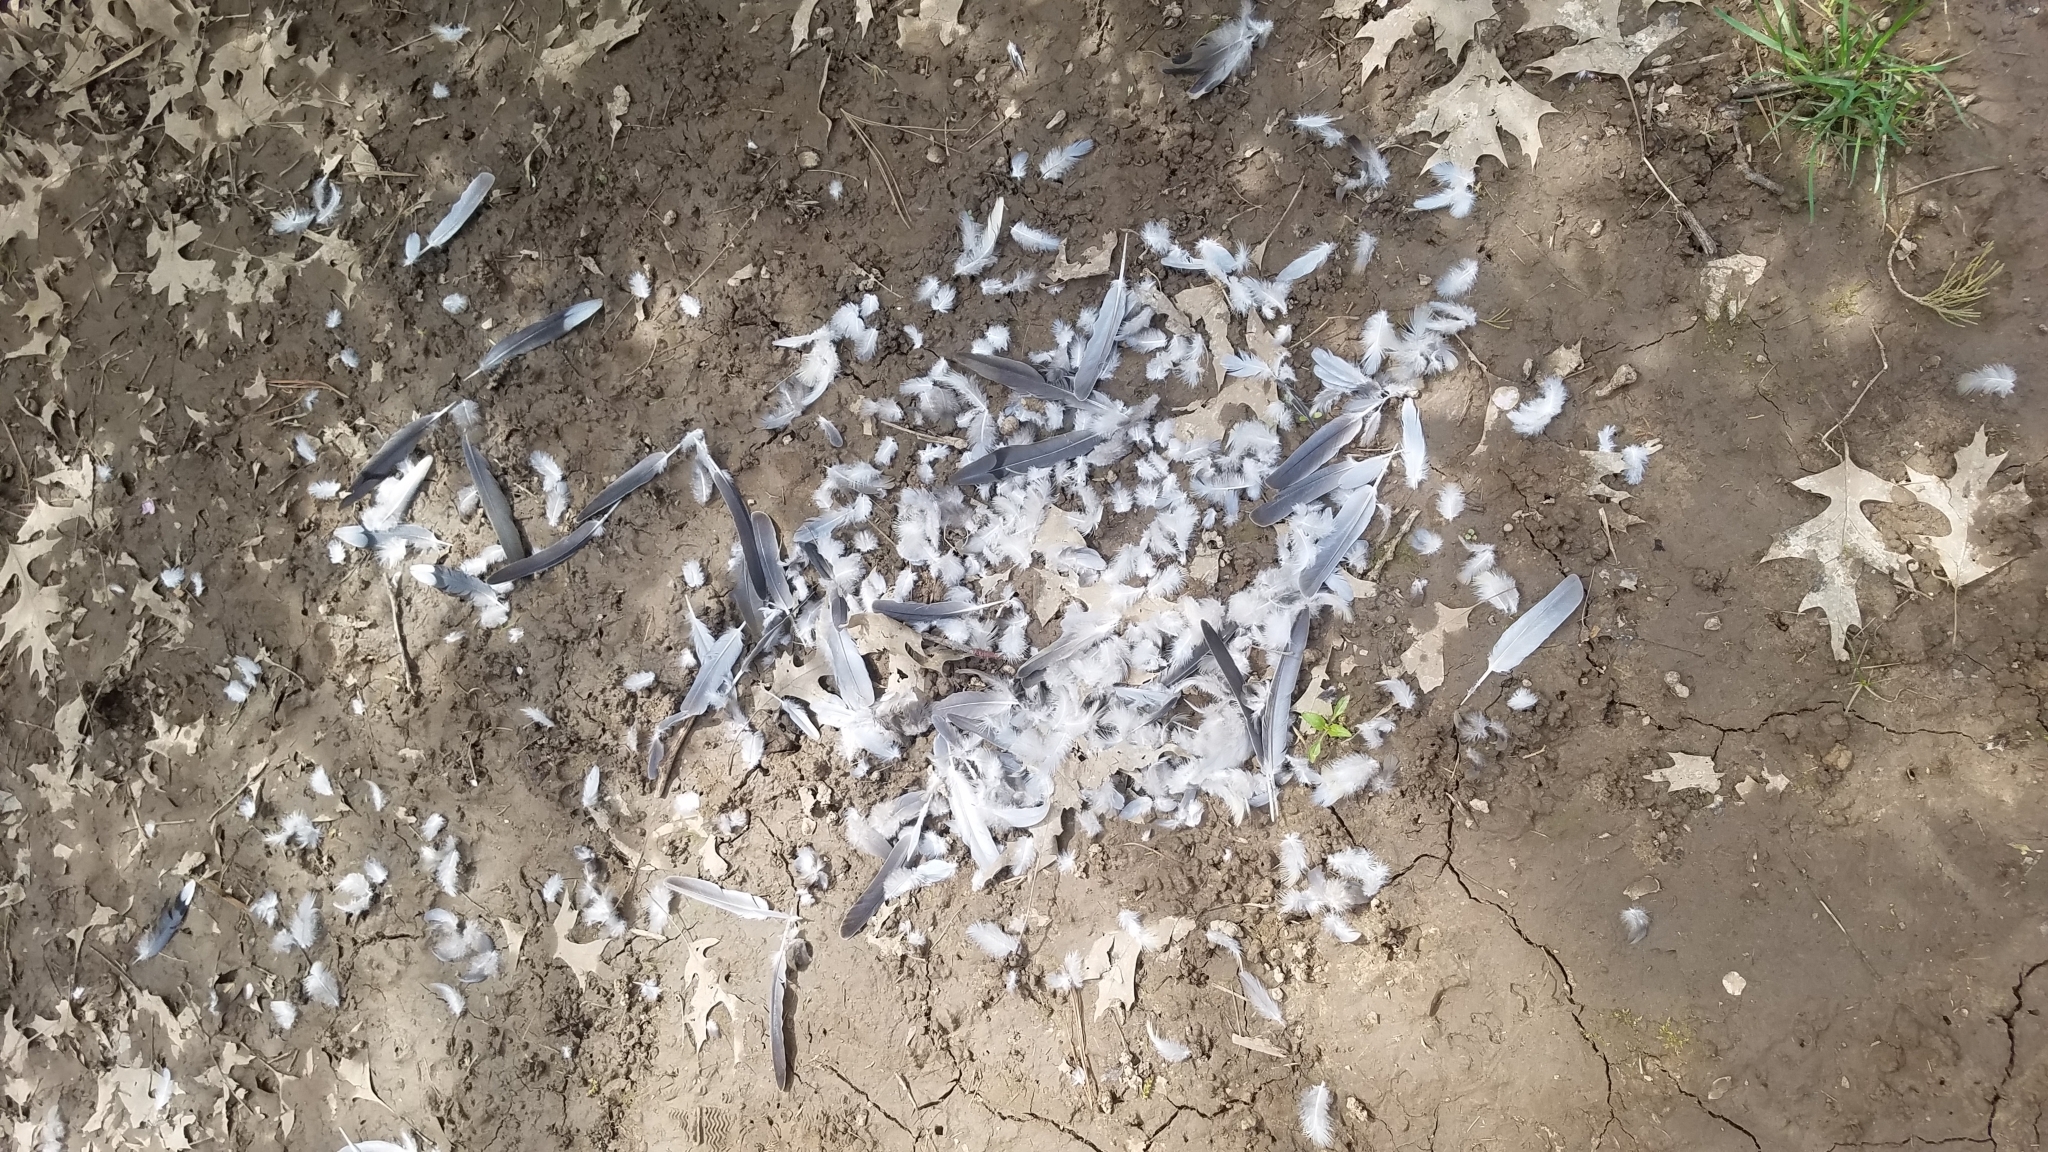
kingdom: Animalia
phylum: Chordata
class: Aves
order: Columbiformes
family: Columbidae
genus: Zenaida
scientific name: Zenaida macroura
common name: Mourning dove
